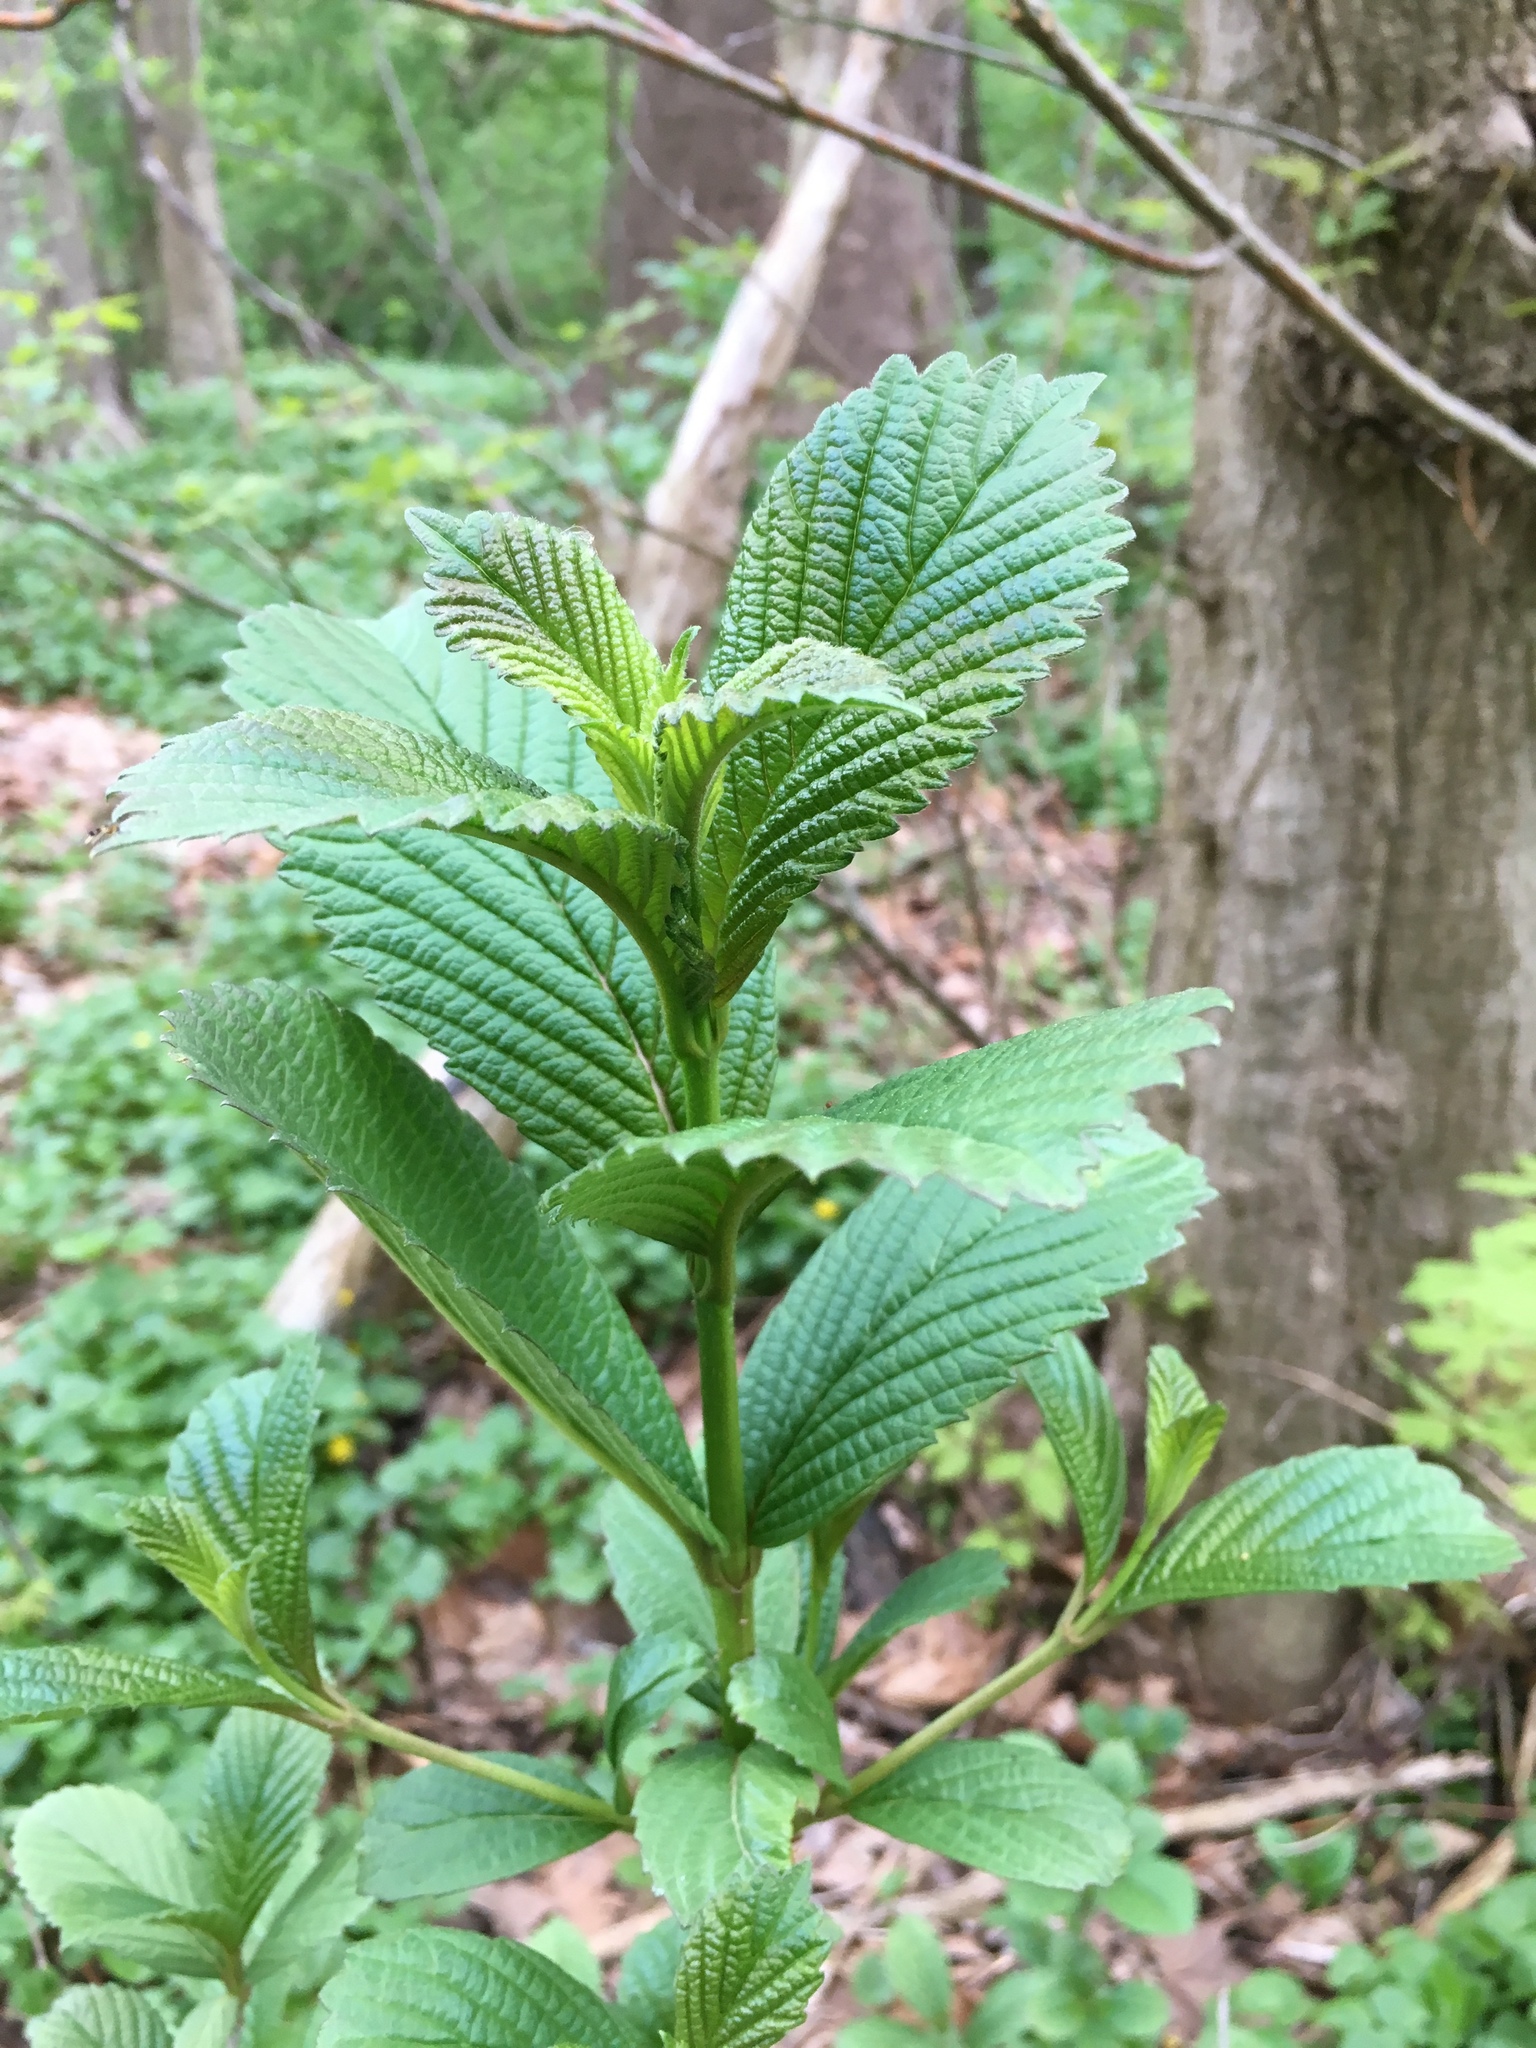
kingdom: Plantae
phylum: Tracheophyta
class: Magnoliopsida
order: Dipsacales
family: Viburnaceae
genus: Viburnum
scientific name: Viburnum sieboldii
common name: Siebold's arrowwood
